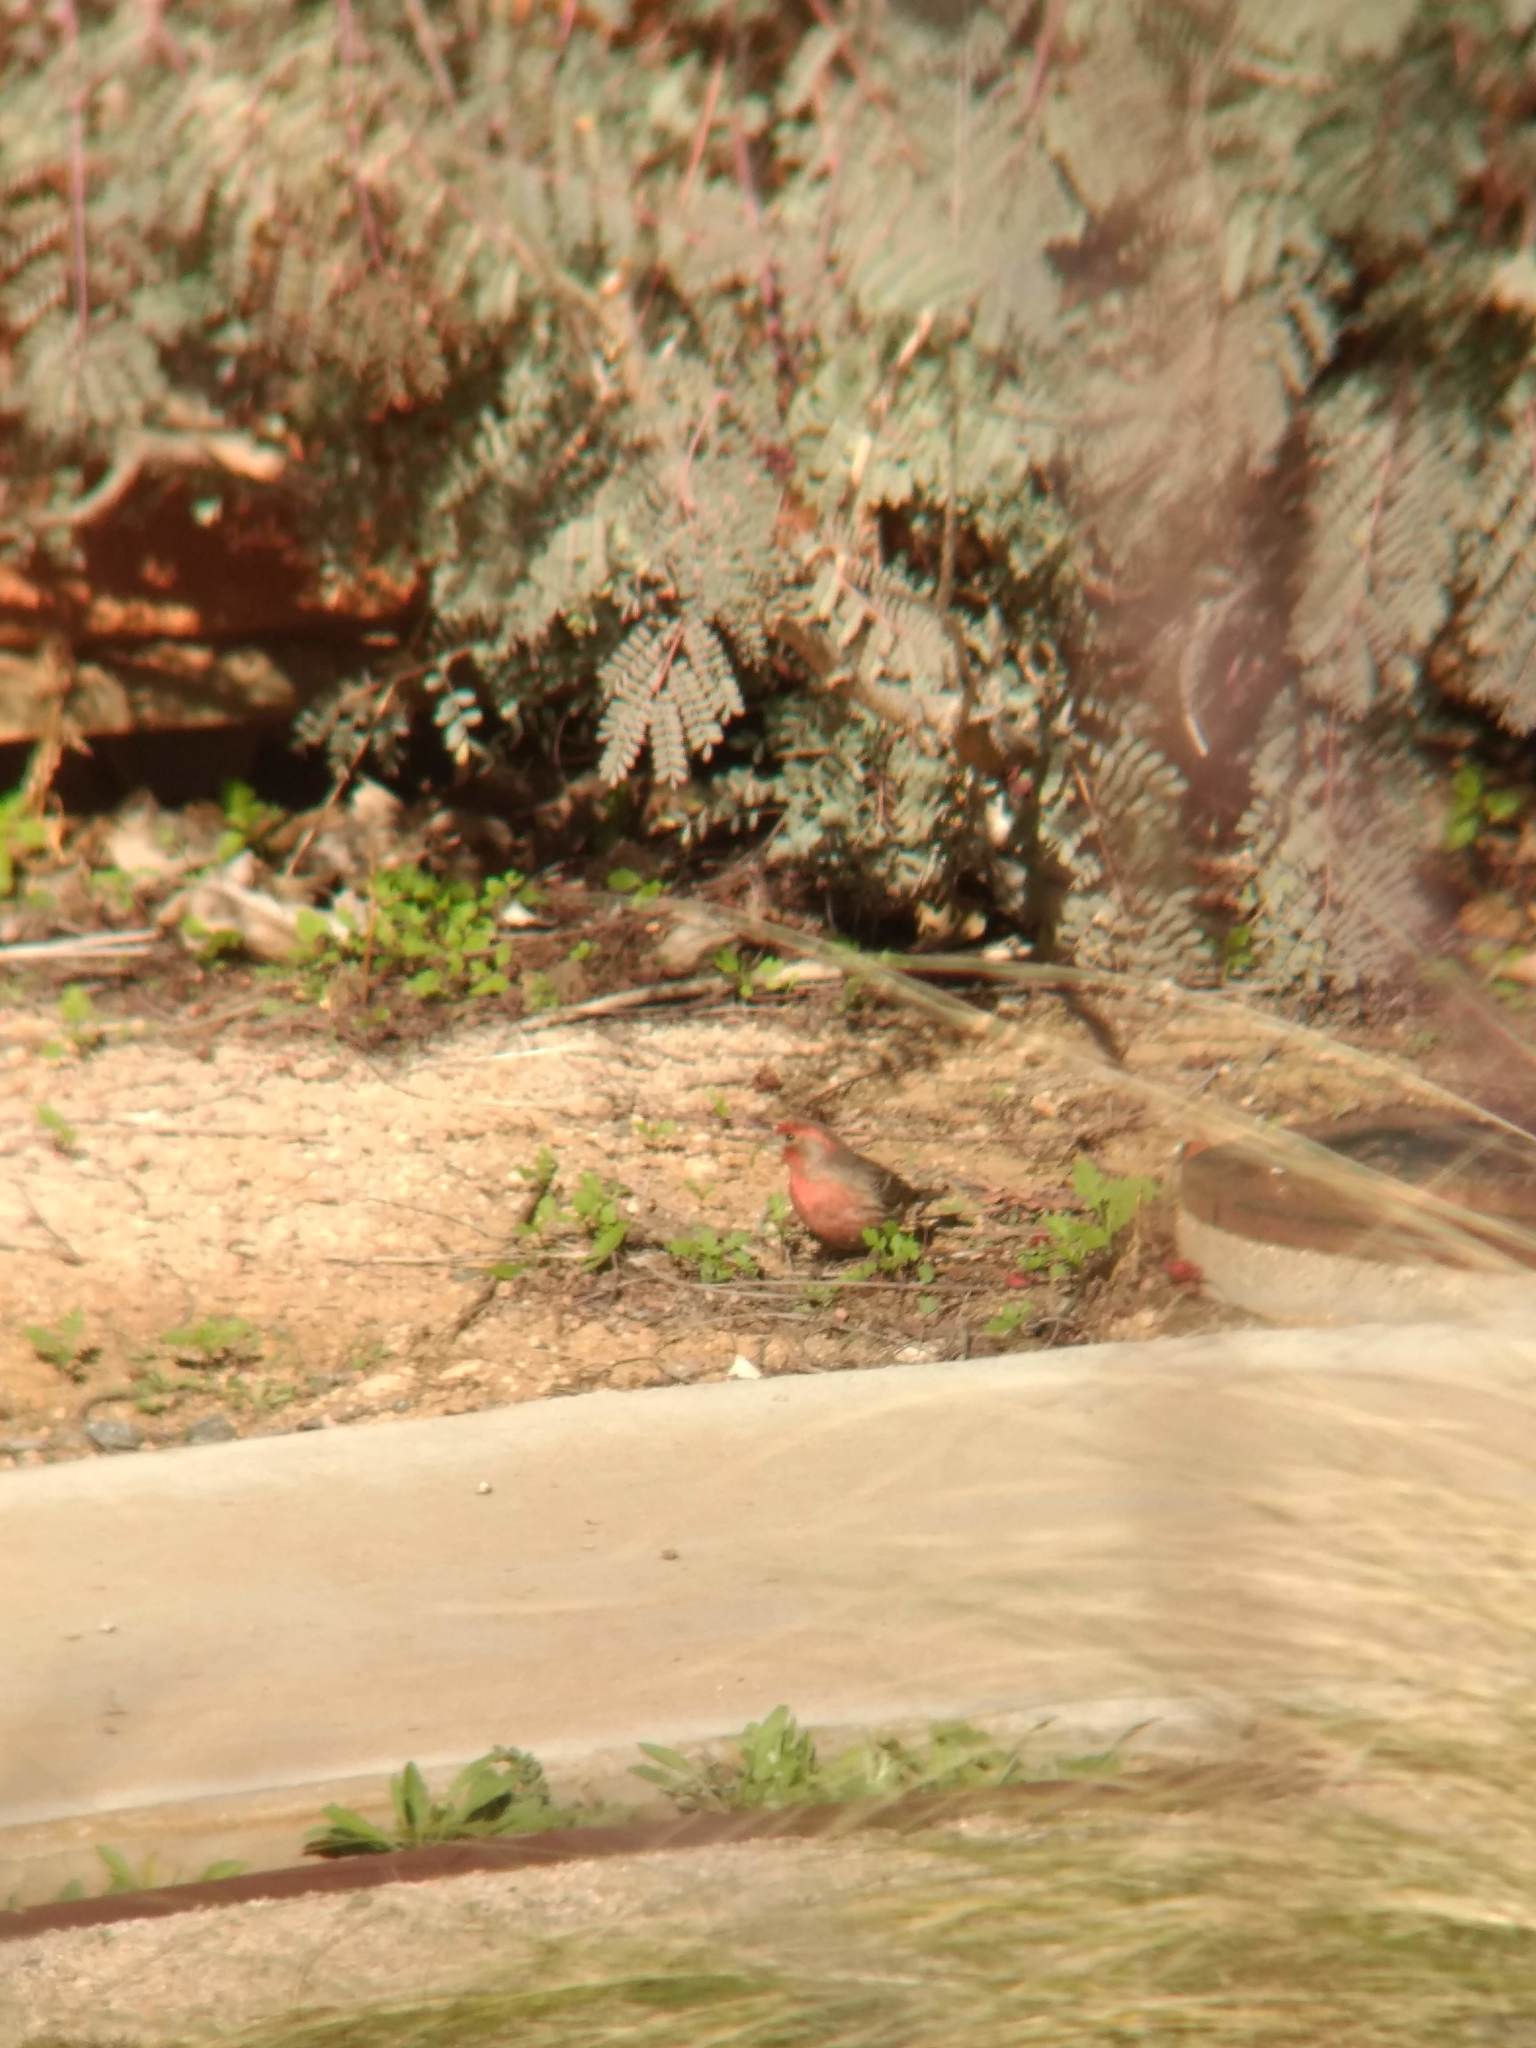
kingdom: Animalia
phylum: Chordata
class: Aves
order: Passeriformes
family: Fringillidae
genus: Haemorhous
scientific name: Haemorhous mexicanus
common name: House finch
